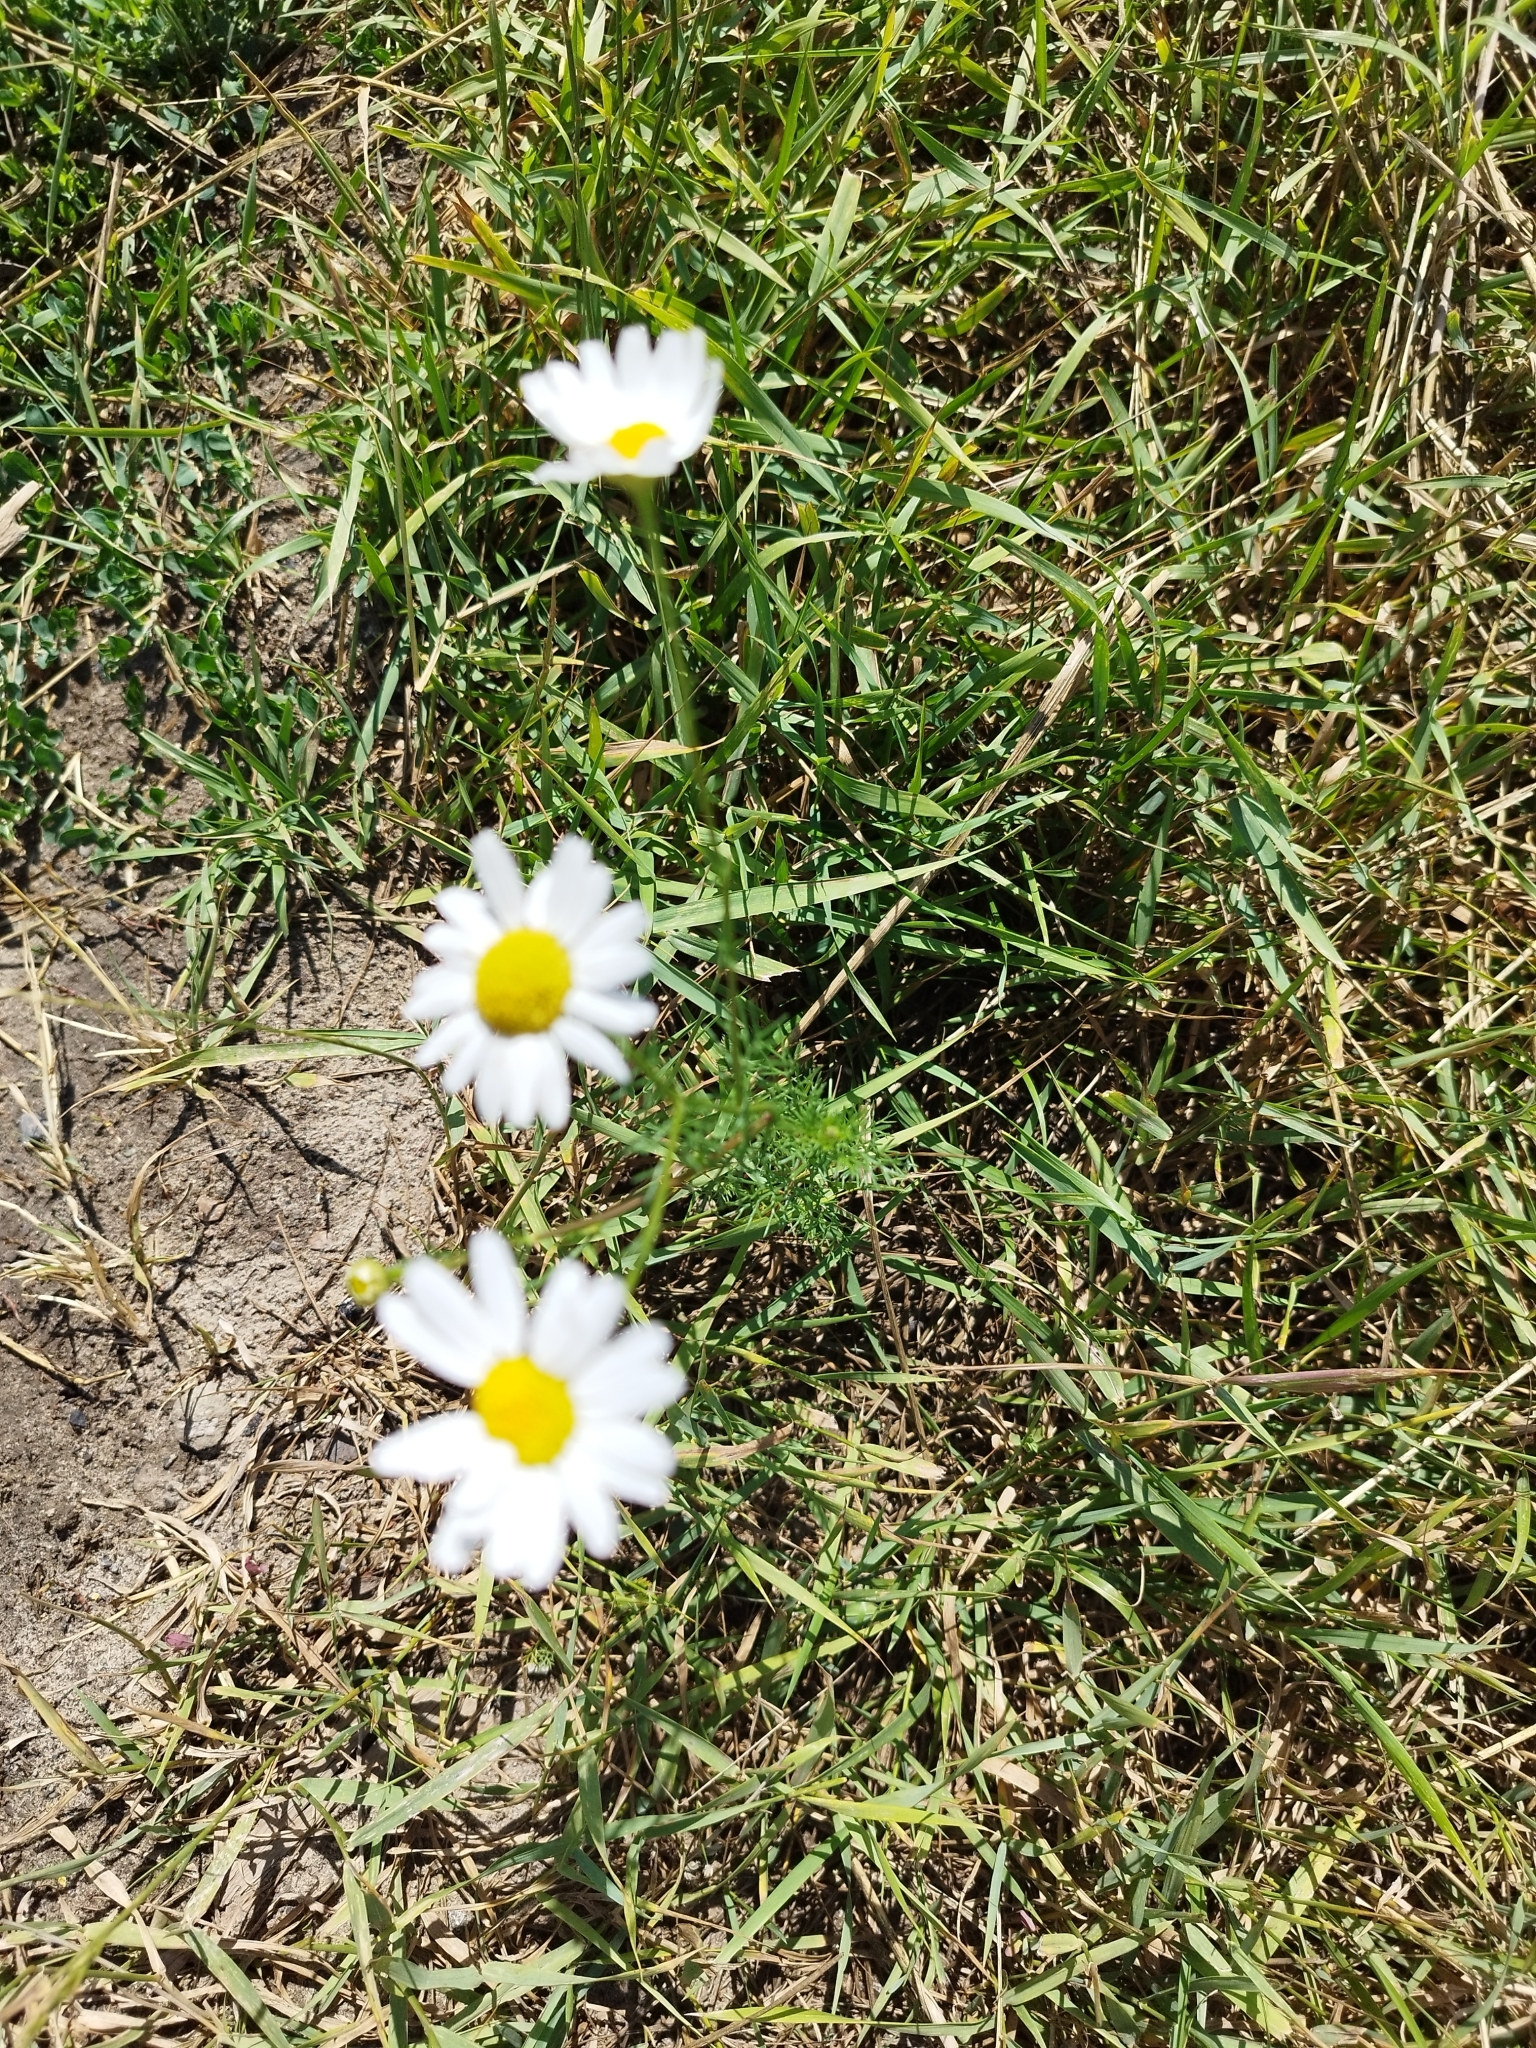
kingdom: Plantae
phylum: Tracheophyta
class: Magnoliopsida
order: Asterales
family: Asteraceae
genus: Tripleurospermum
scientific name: Tripleurospermum inodorum
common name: Scentless mayweed
